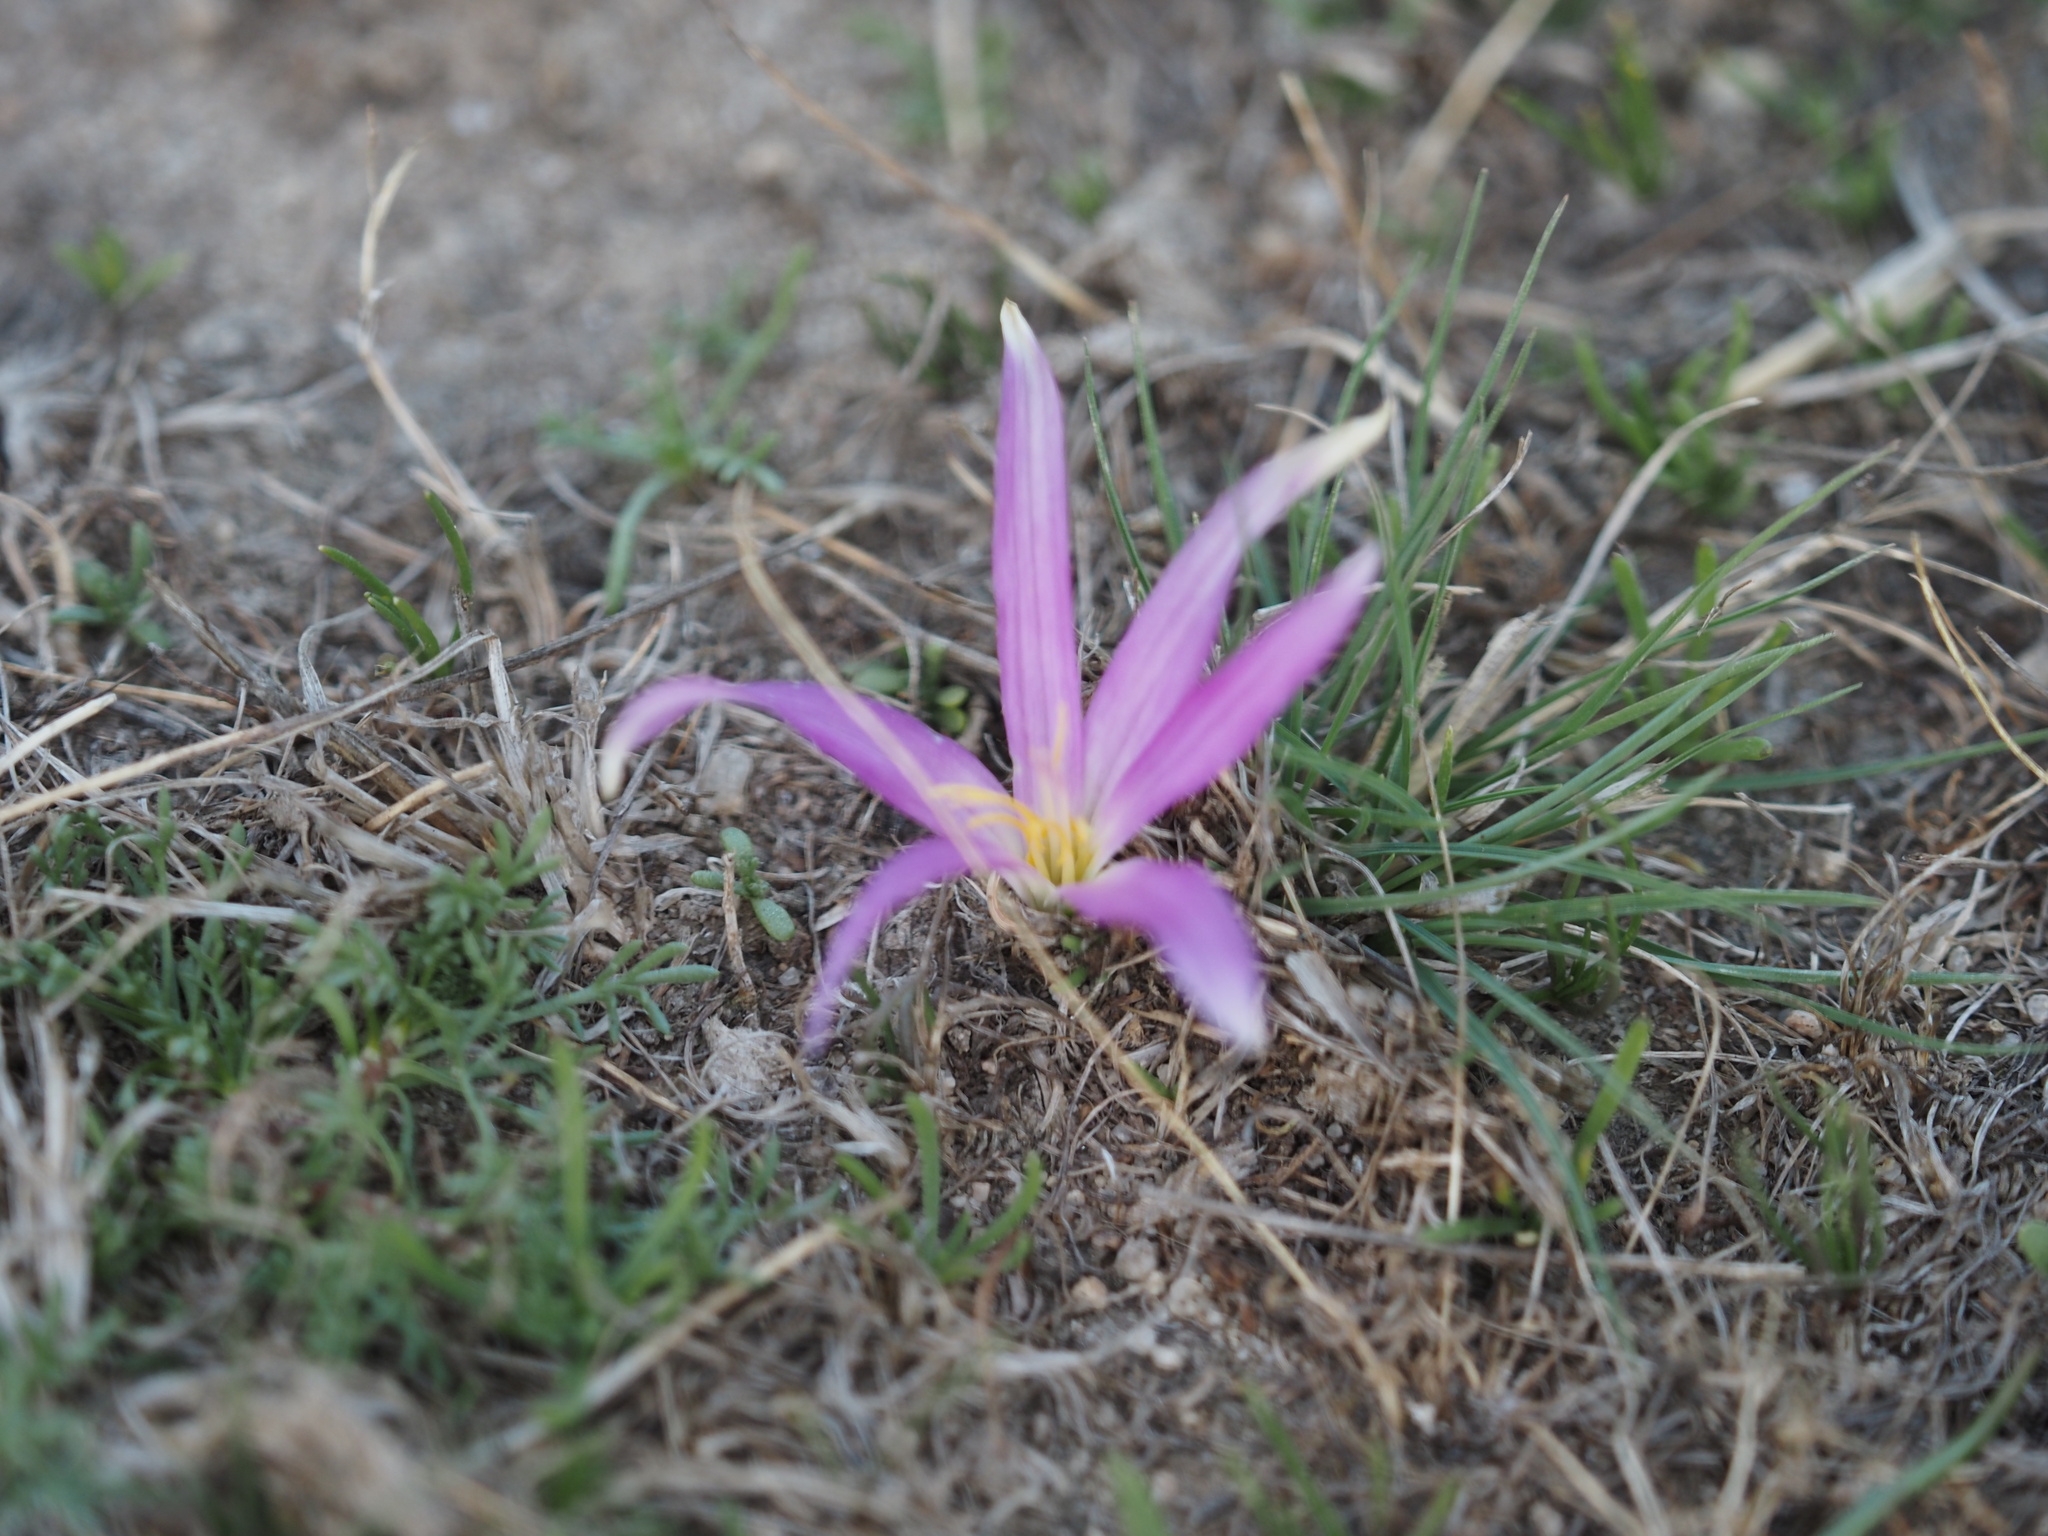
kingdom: Plantae
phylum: Tracheophyta
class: Liliopsida
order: Liliales
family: Colchicaceae
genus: Colchicum
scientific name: Colchicum montanum
